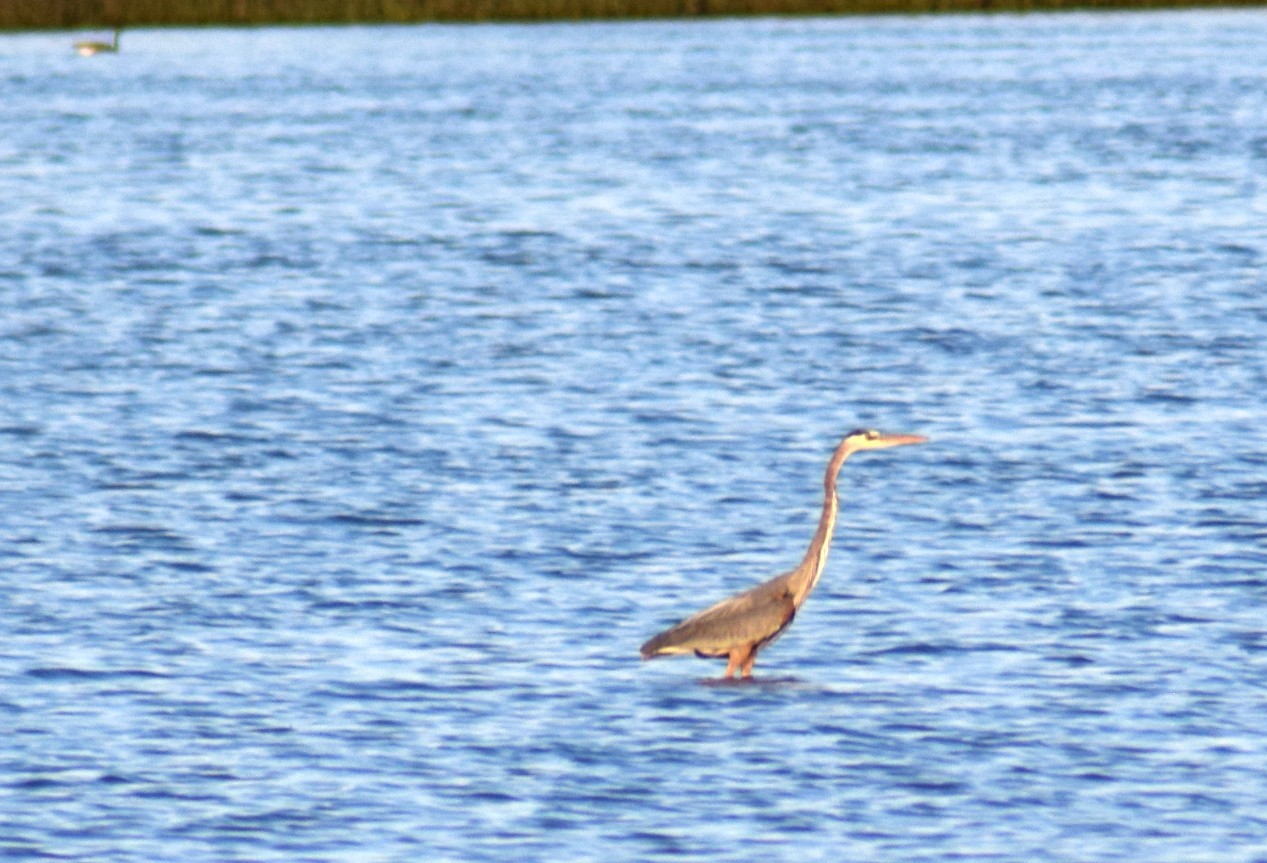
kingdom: Animalia
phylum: Chordata
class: Aves
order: Pelecaniformes
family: Ardeidae
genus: Ardea
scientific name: Ardea herodias
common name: Great blue heron
